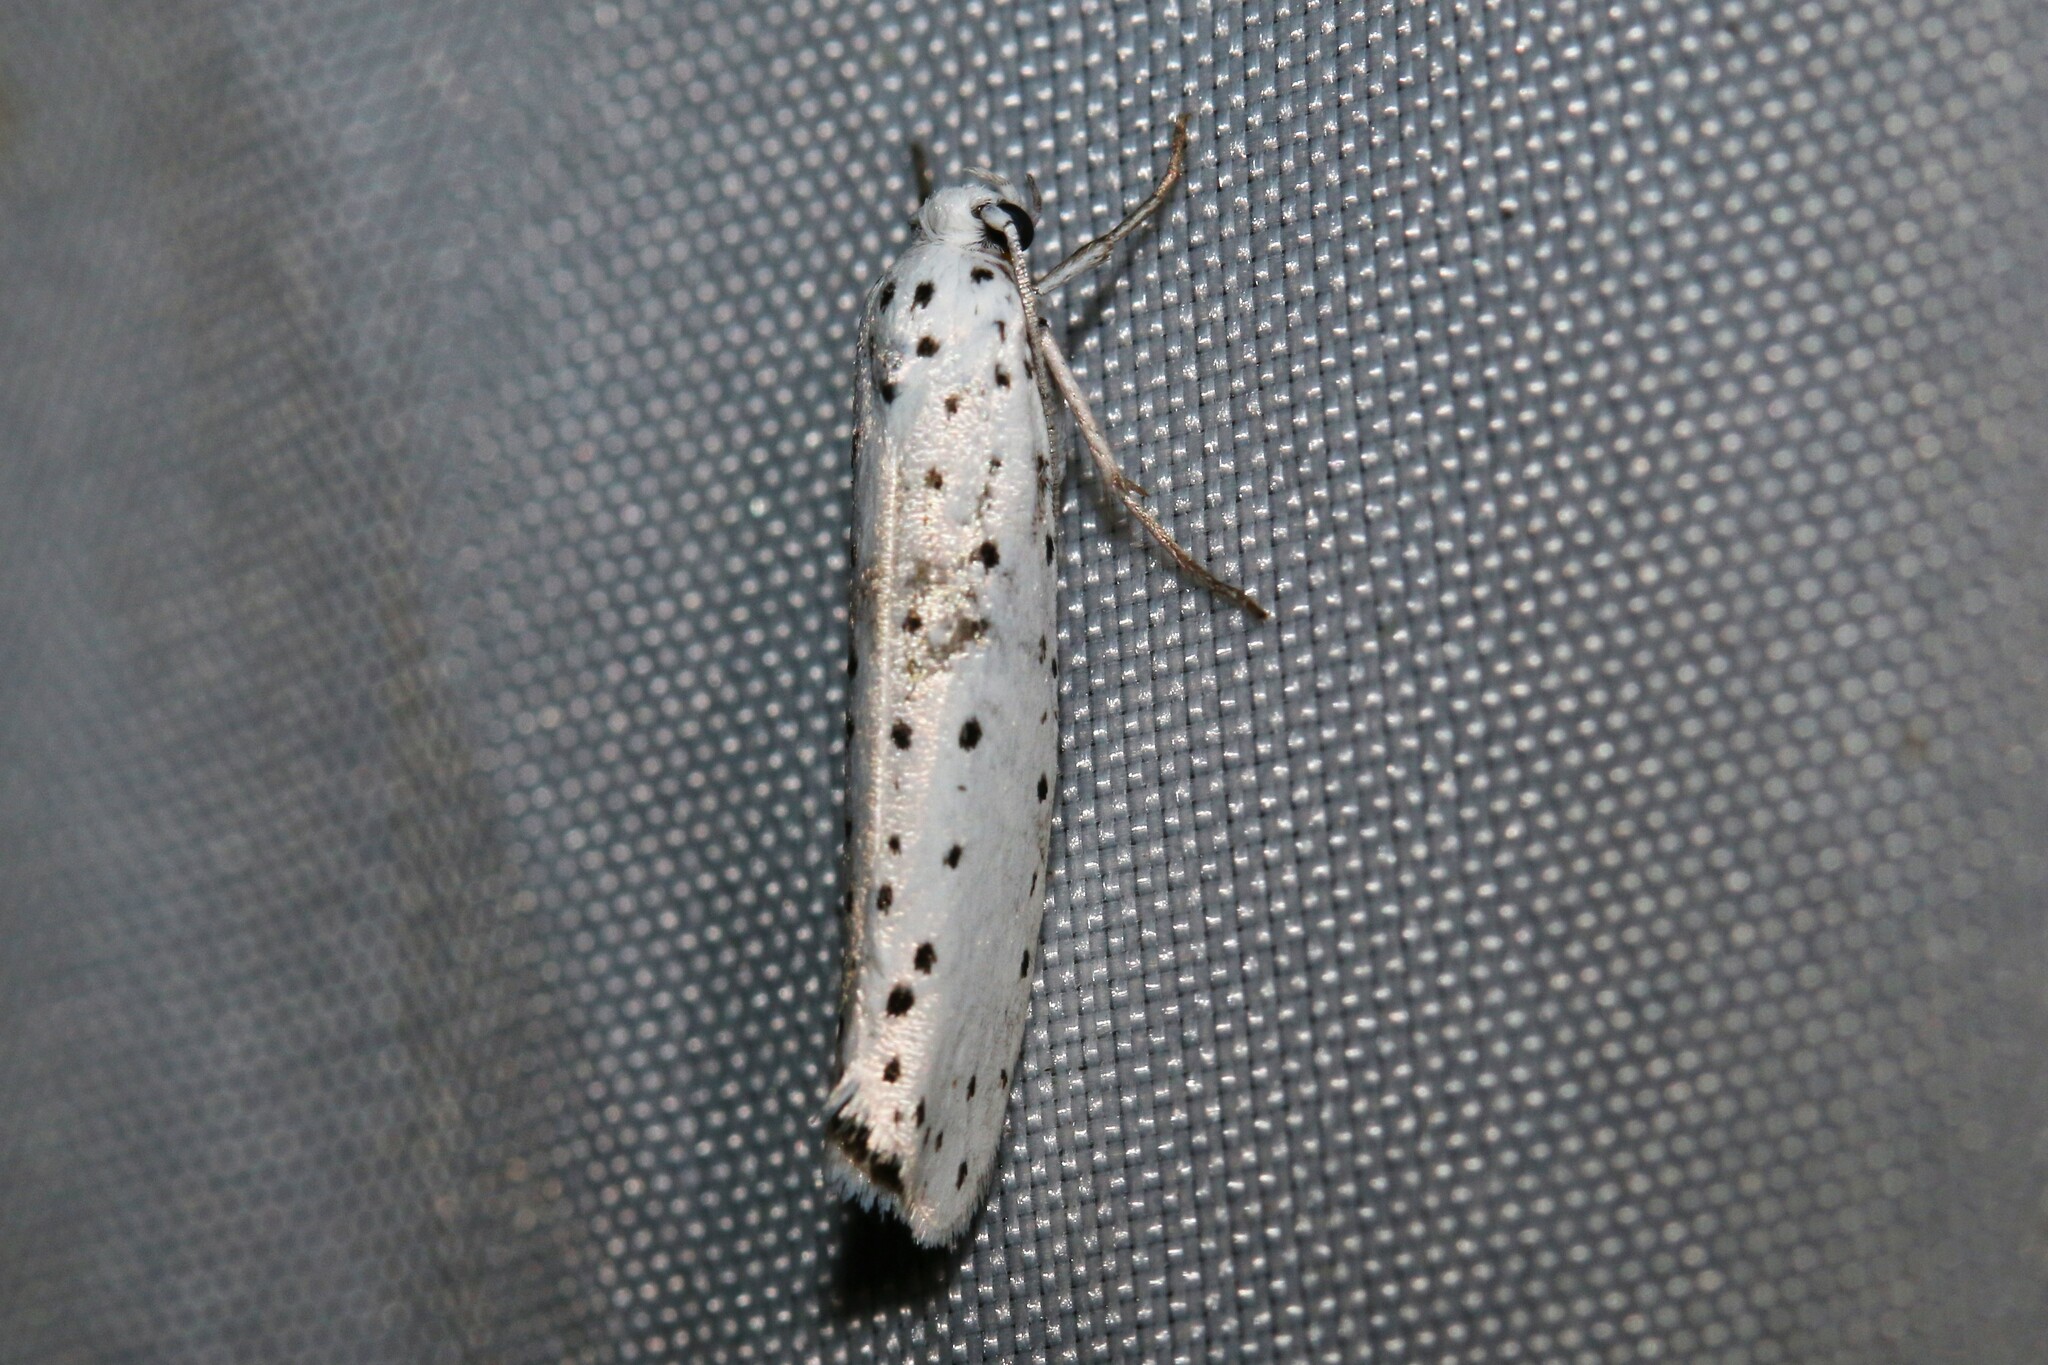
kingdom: Animalia
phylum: Arthropoda
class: Insecta
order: Lepidoptera
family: Yponomeutidae
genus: Yponomeuta
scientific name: Yponomeuta
